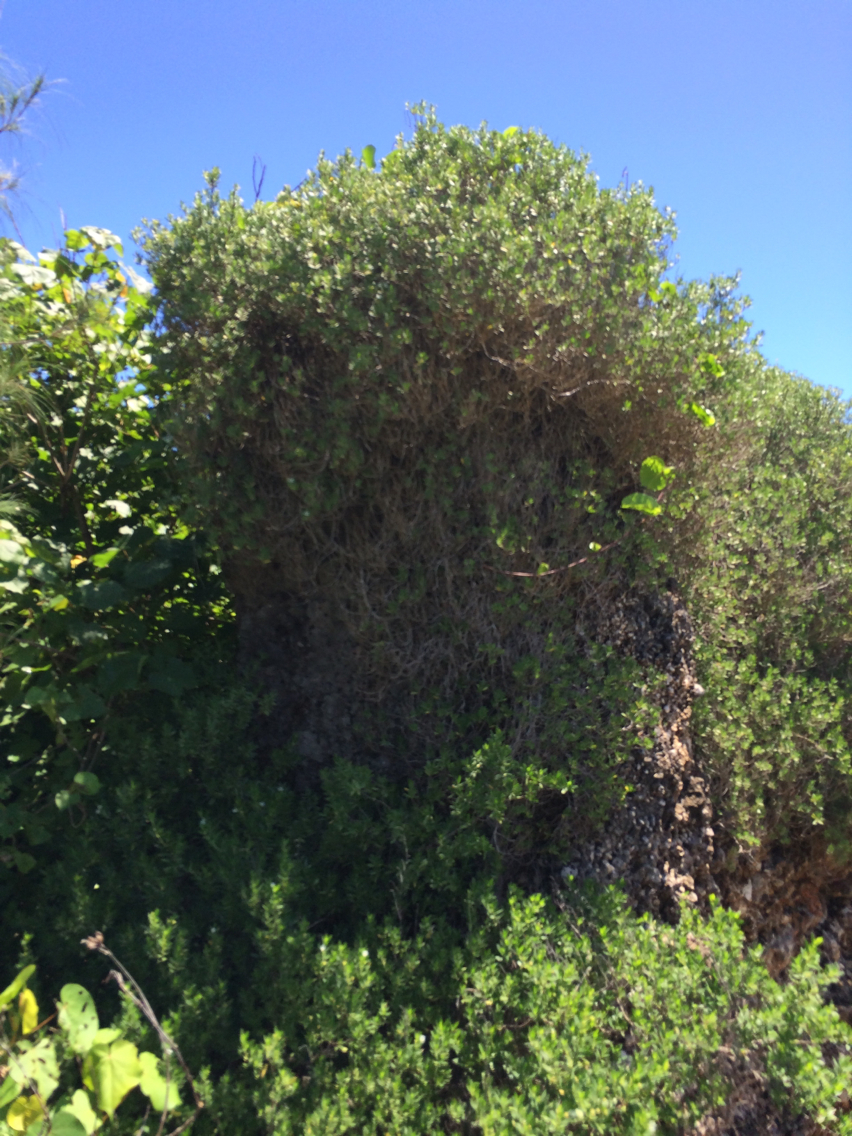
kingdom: Plantae
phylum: Tracheophyta
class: Magnoliopsida
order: Myrtales
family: Lythraceae
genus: Pemphis
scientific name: Pemphis acidula
